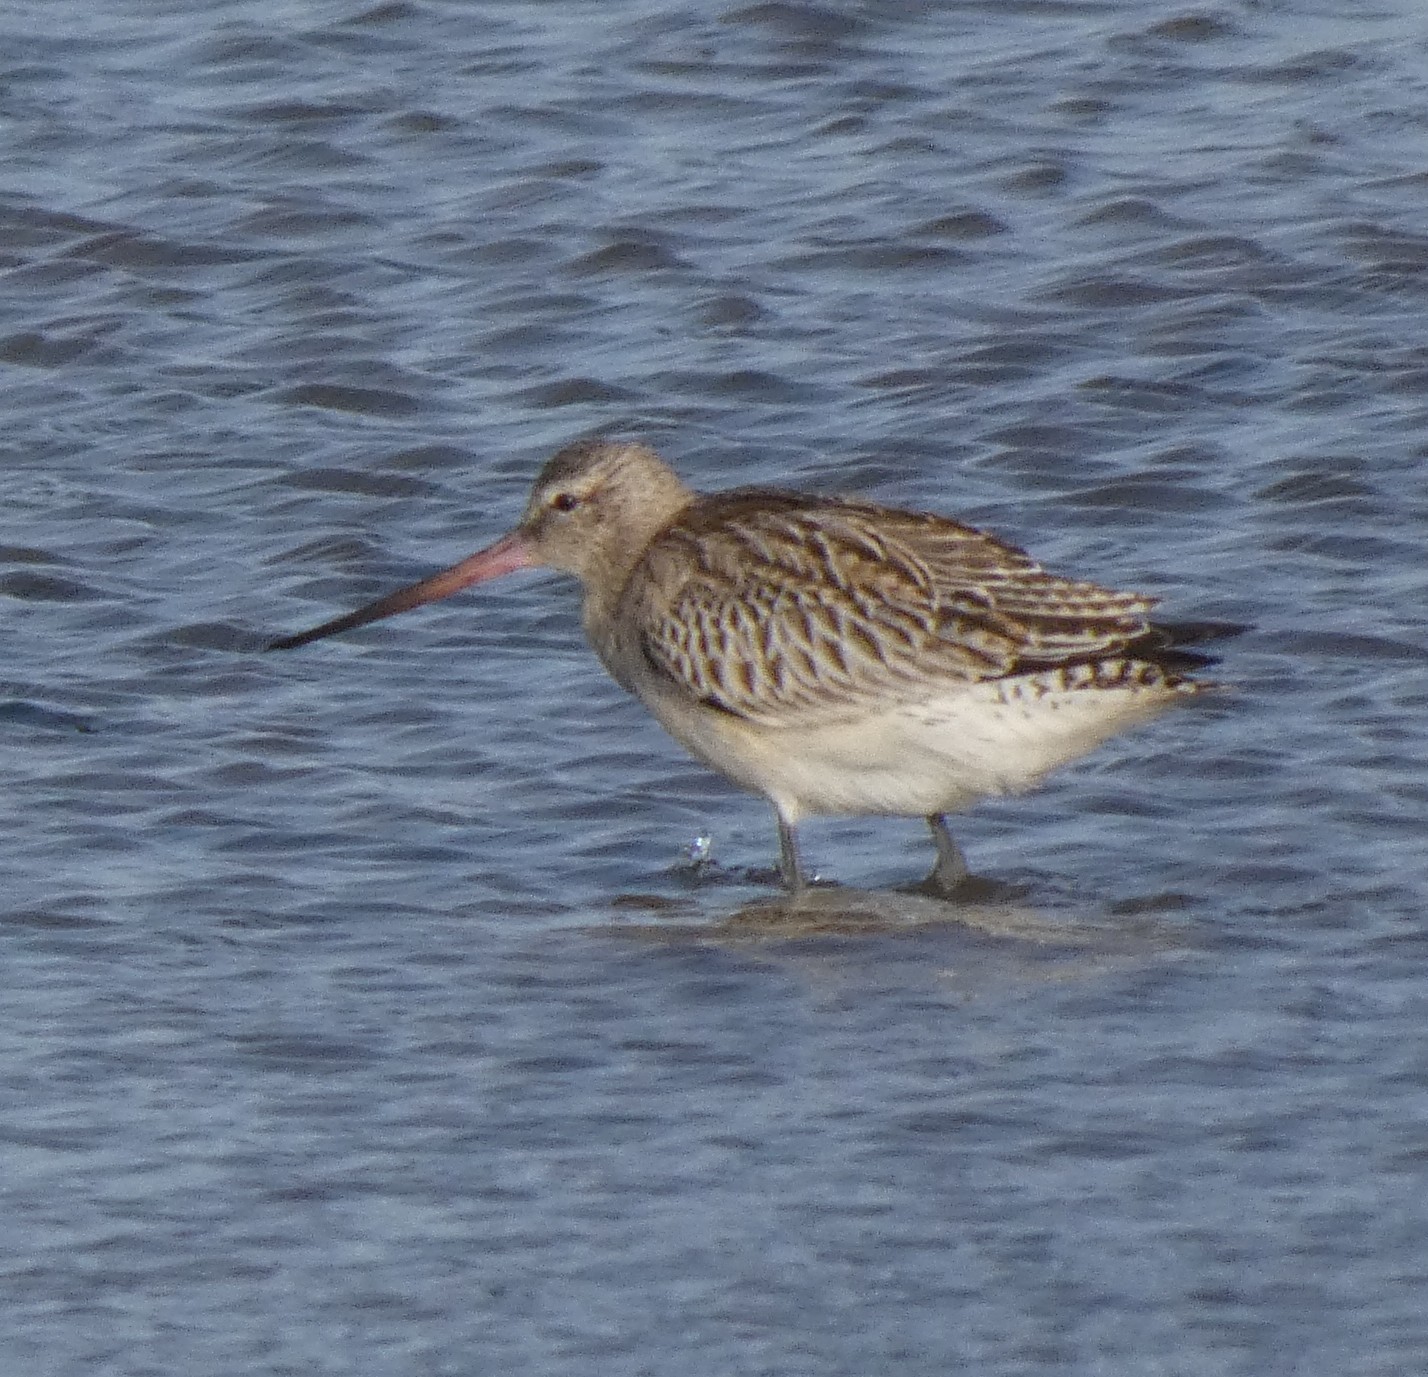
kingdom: Animalia
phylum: Chordata
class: Aves
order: Charadriiformes
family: Scolopacidae
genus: Limosa
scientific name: Limosa lapponica
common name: Bar-tailed godwit
